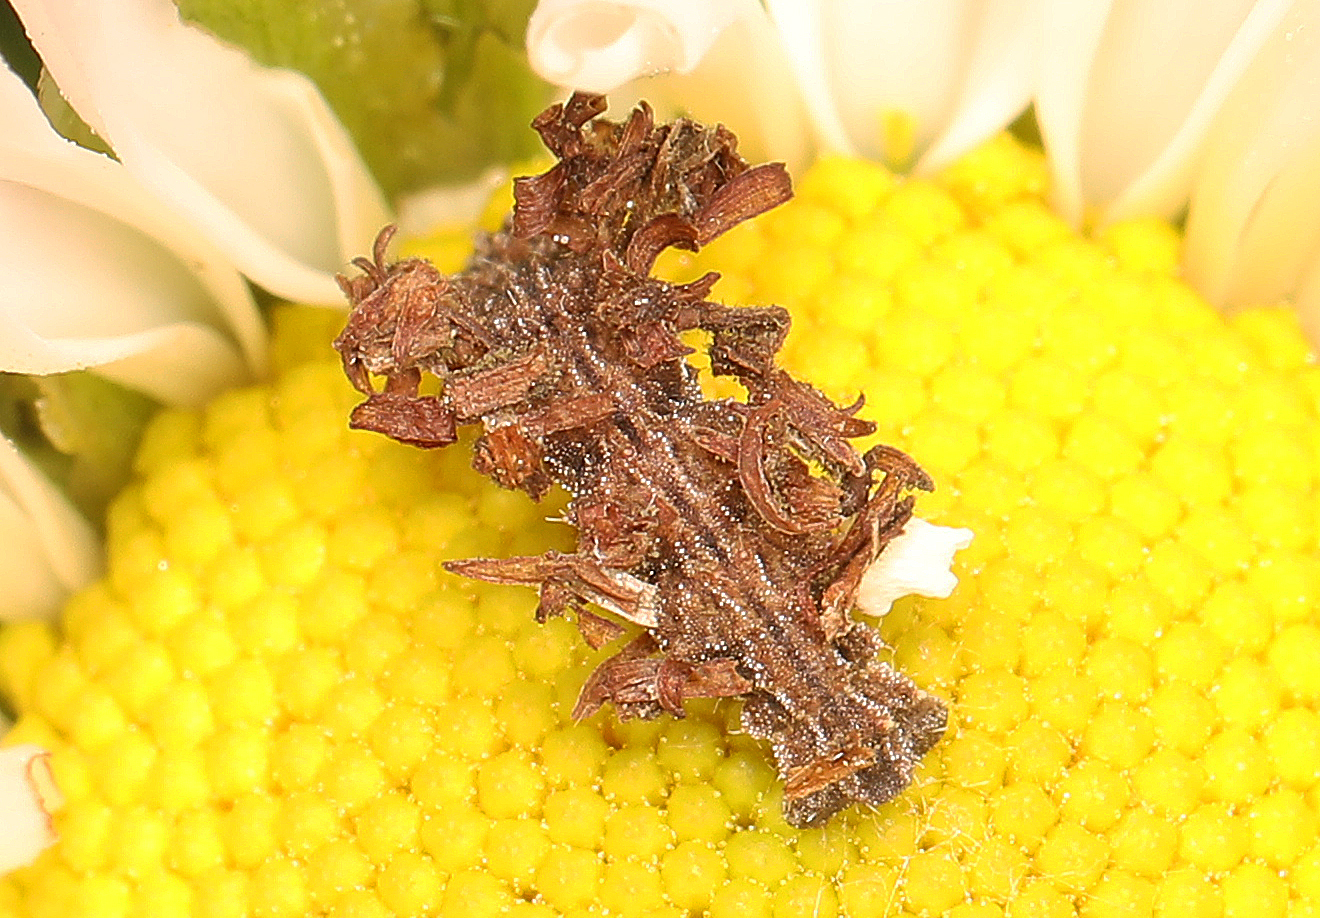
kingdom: Animalia
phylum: Arthropoda
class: Insecta
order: Lepidoptera
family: Geometridae
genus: Synchlora
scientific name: Synchlora aerata
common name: Wavy-lined emerald
